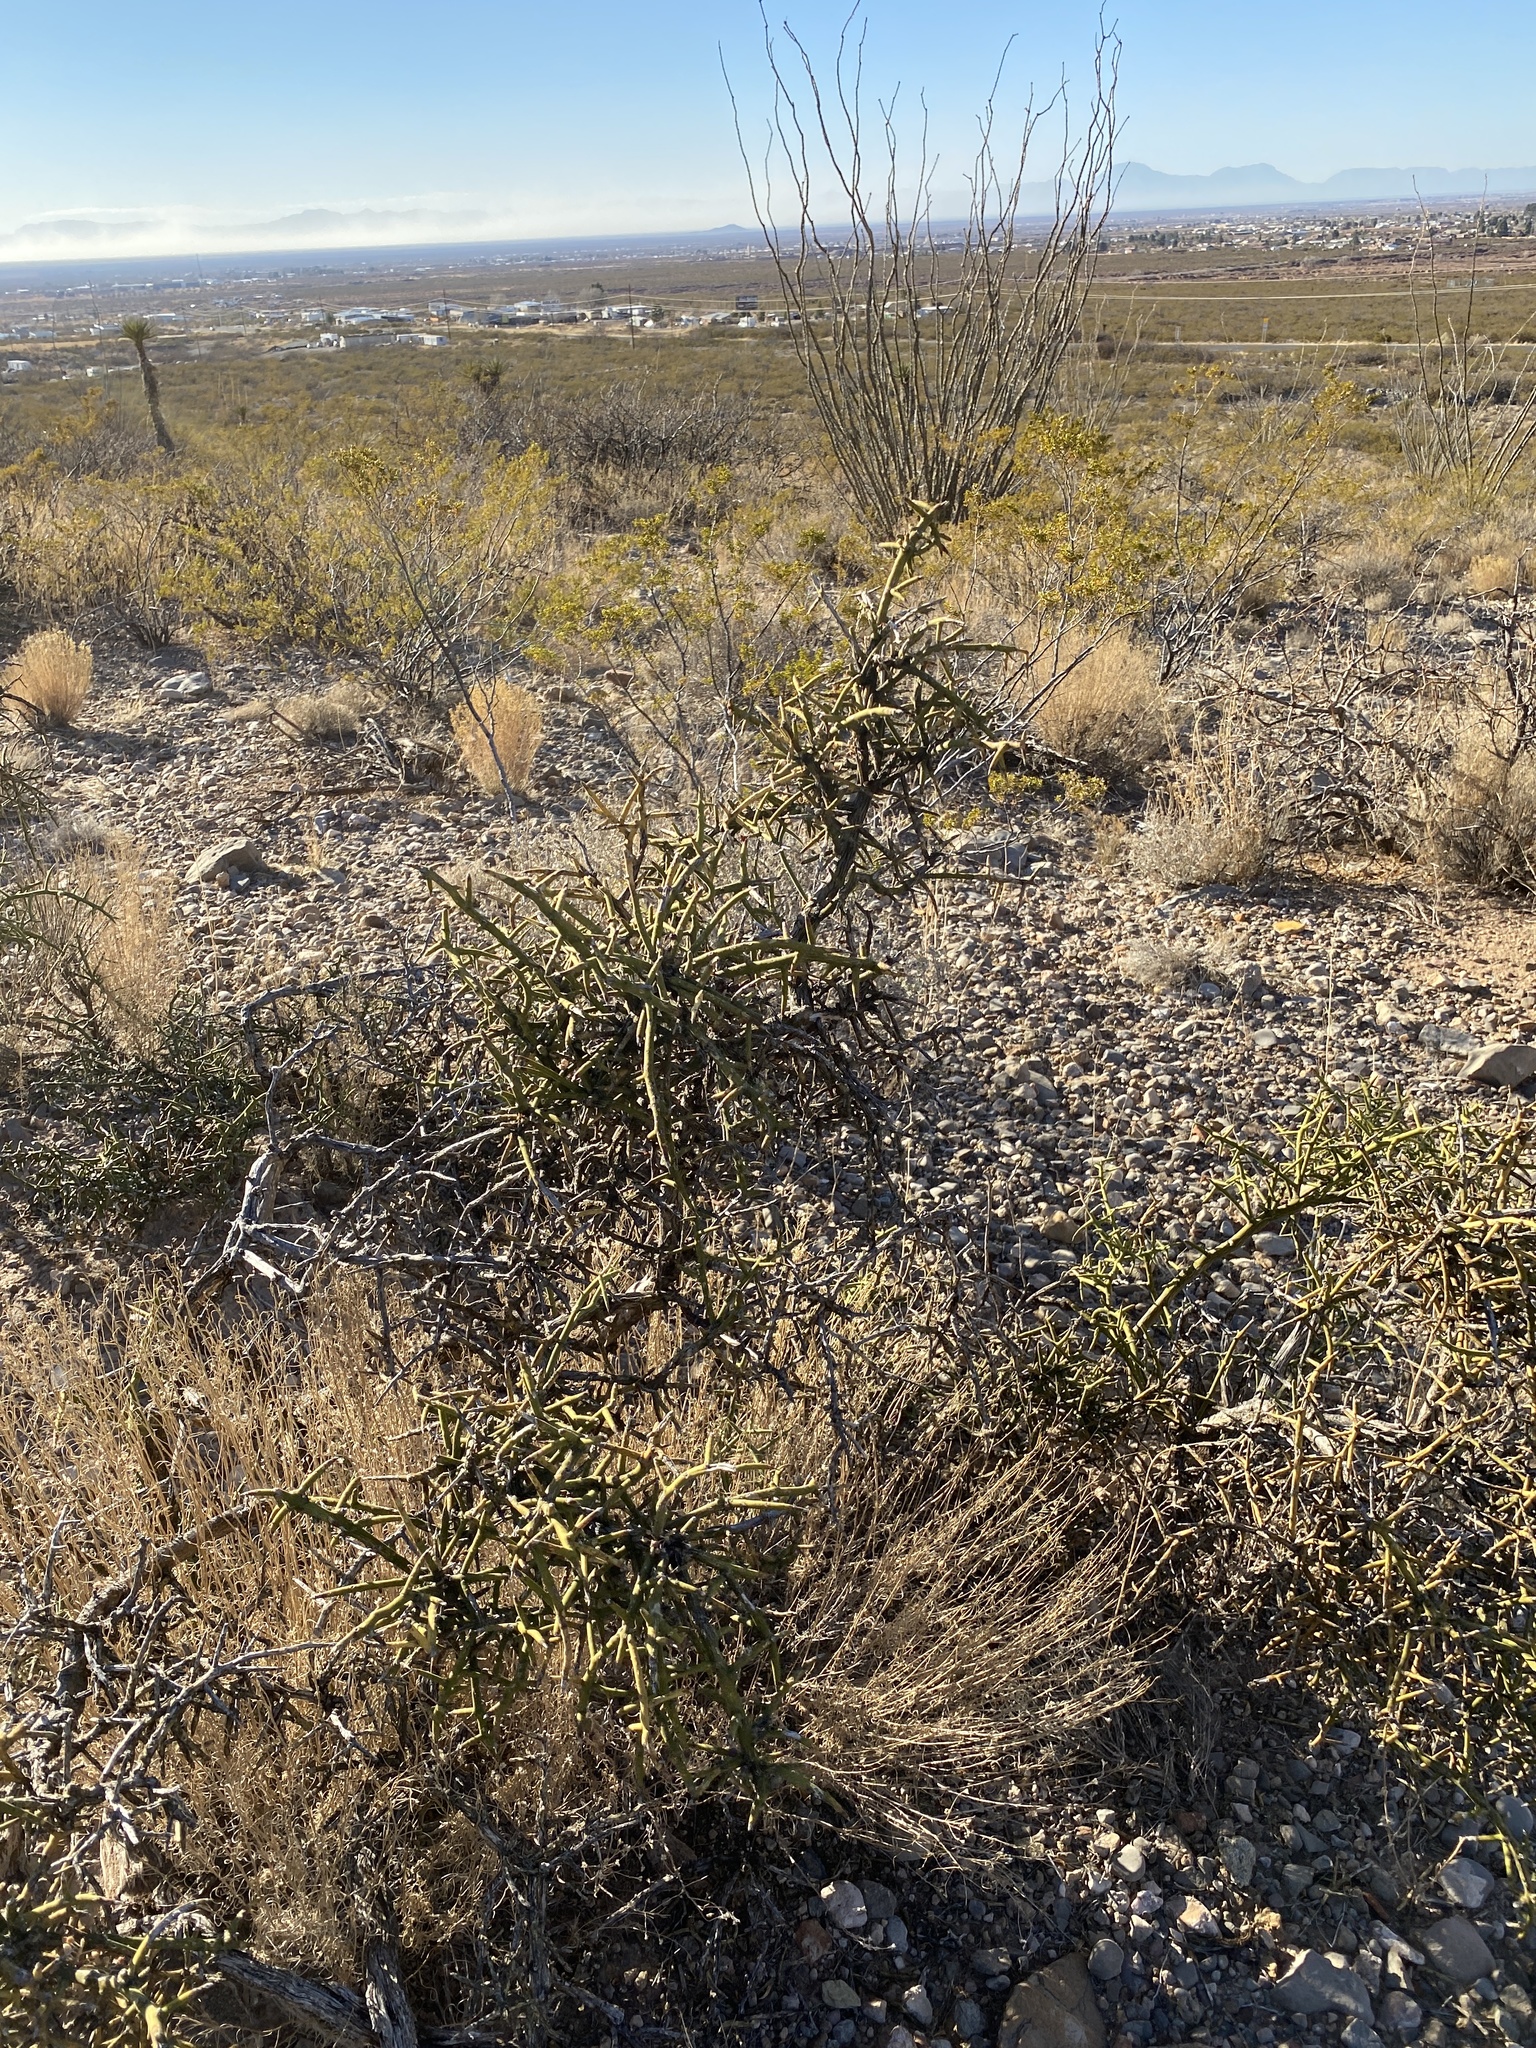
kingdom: Plantae
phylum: Tracheophyta
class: Magnoliopsida
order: Brassicales
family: Koeberliniaceae
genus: Koeberlinia
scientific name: Koeberlinia spinosa
